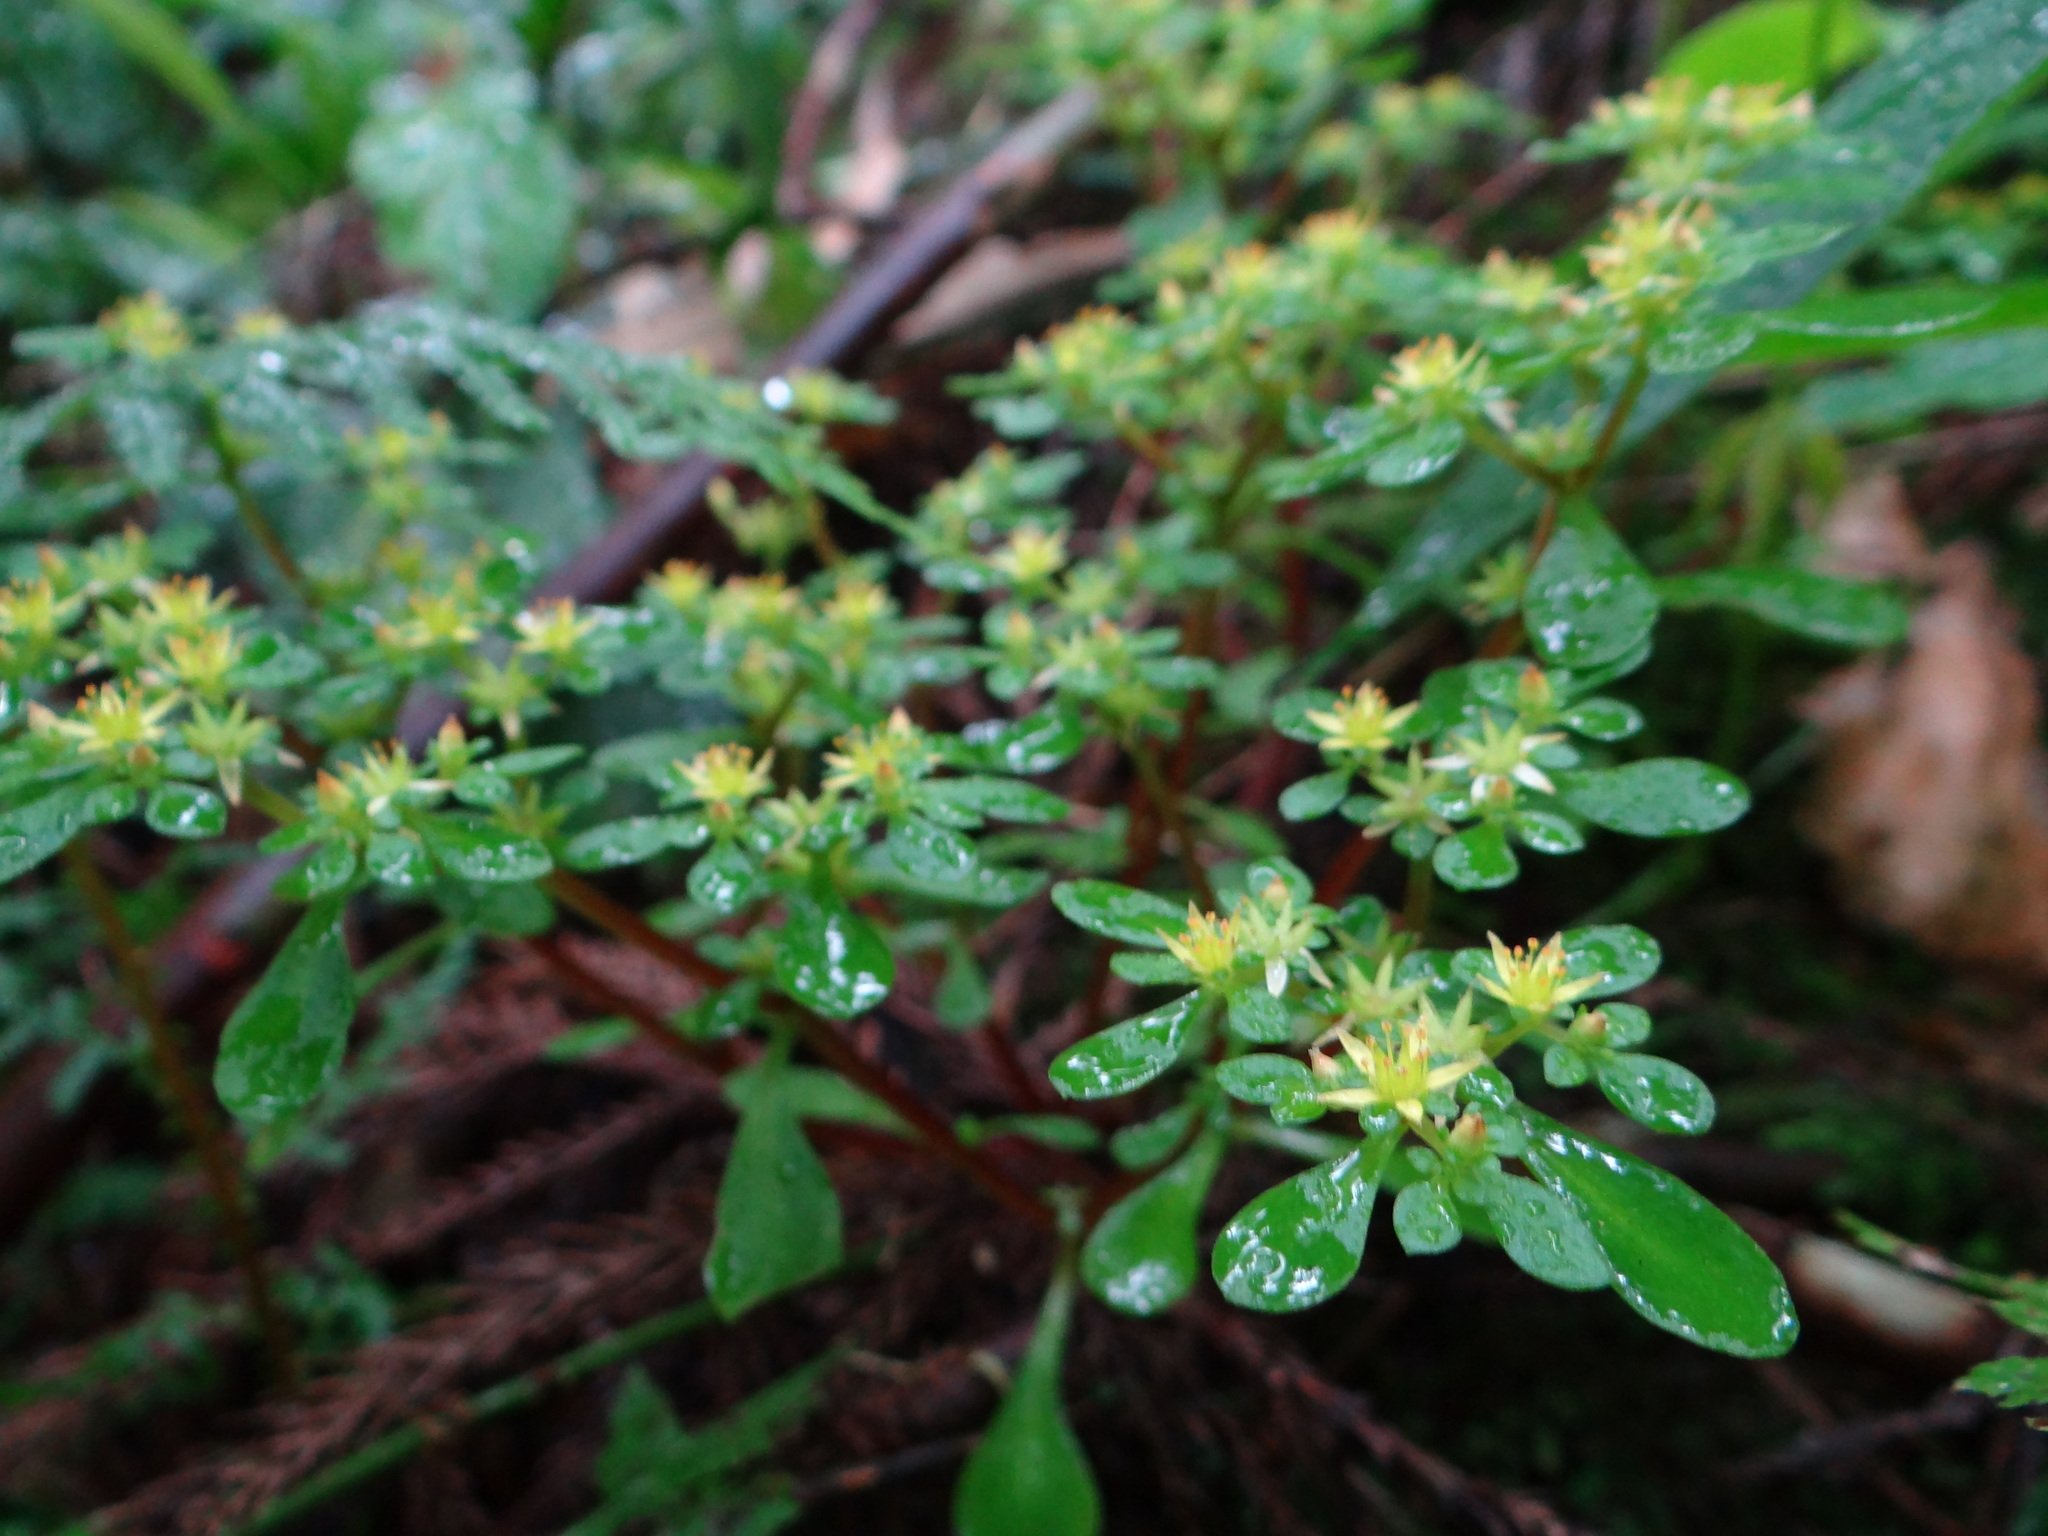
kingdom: Plantae
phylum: Tracheophyta
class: Magnoliopsida
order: Saxifragales
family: Crassulaceae
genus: Sedum
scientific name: Sedum actinocarpum
